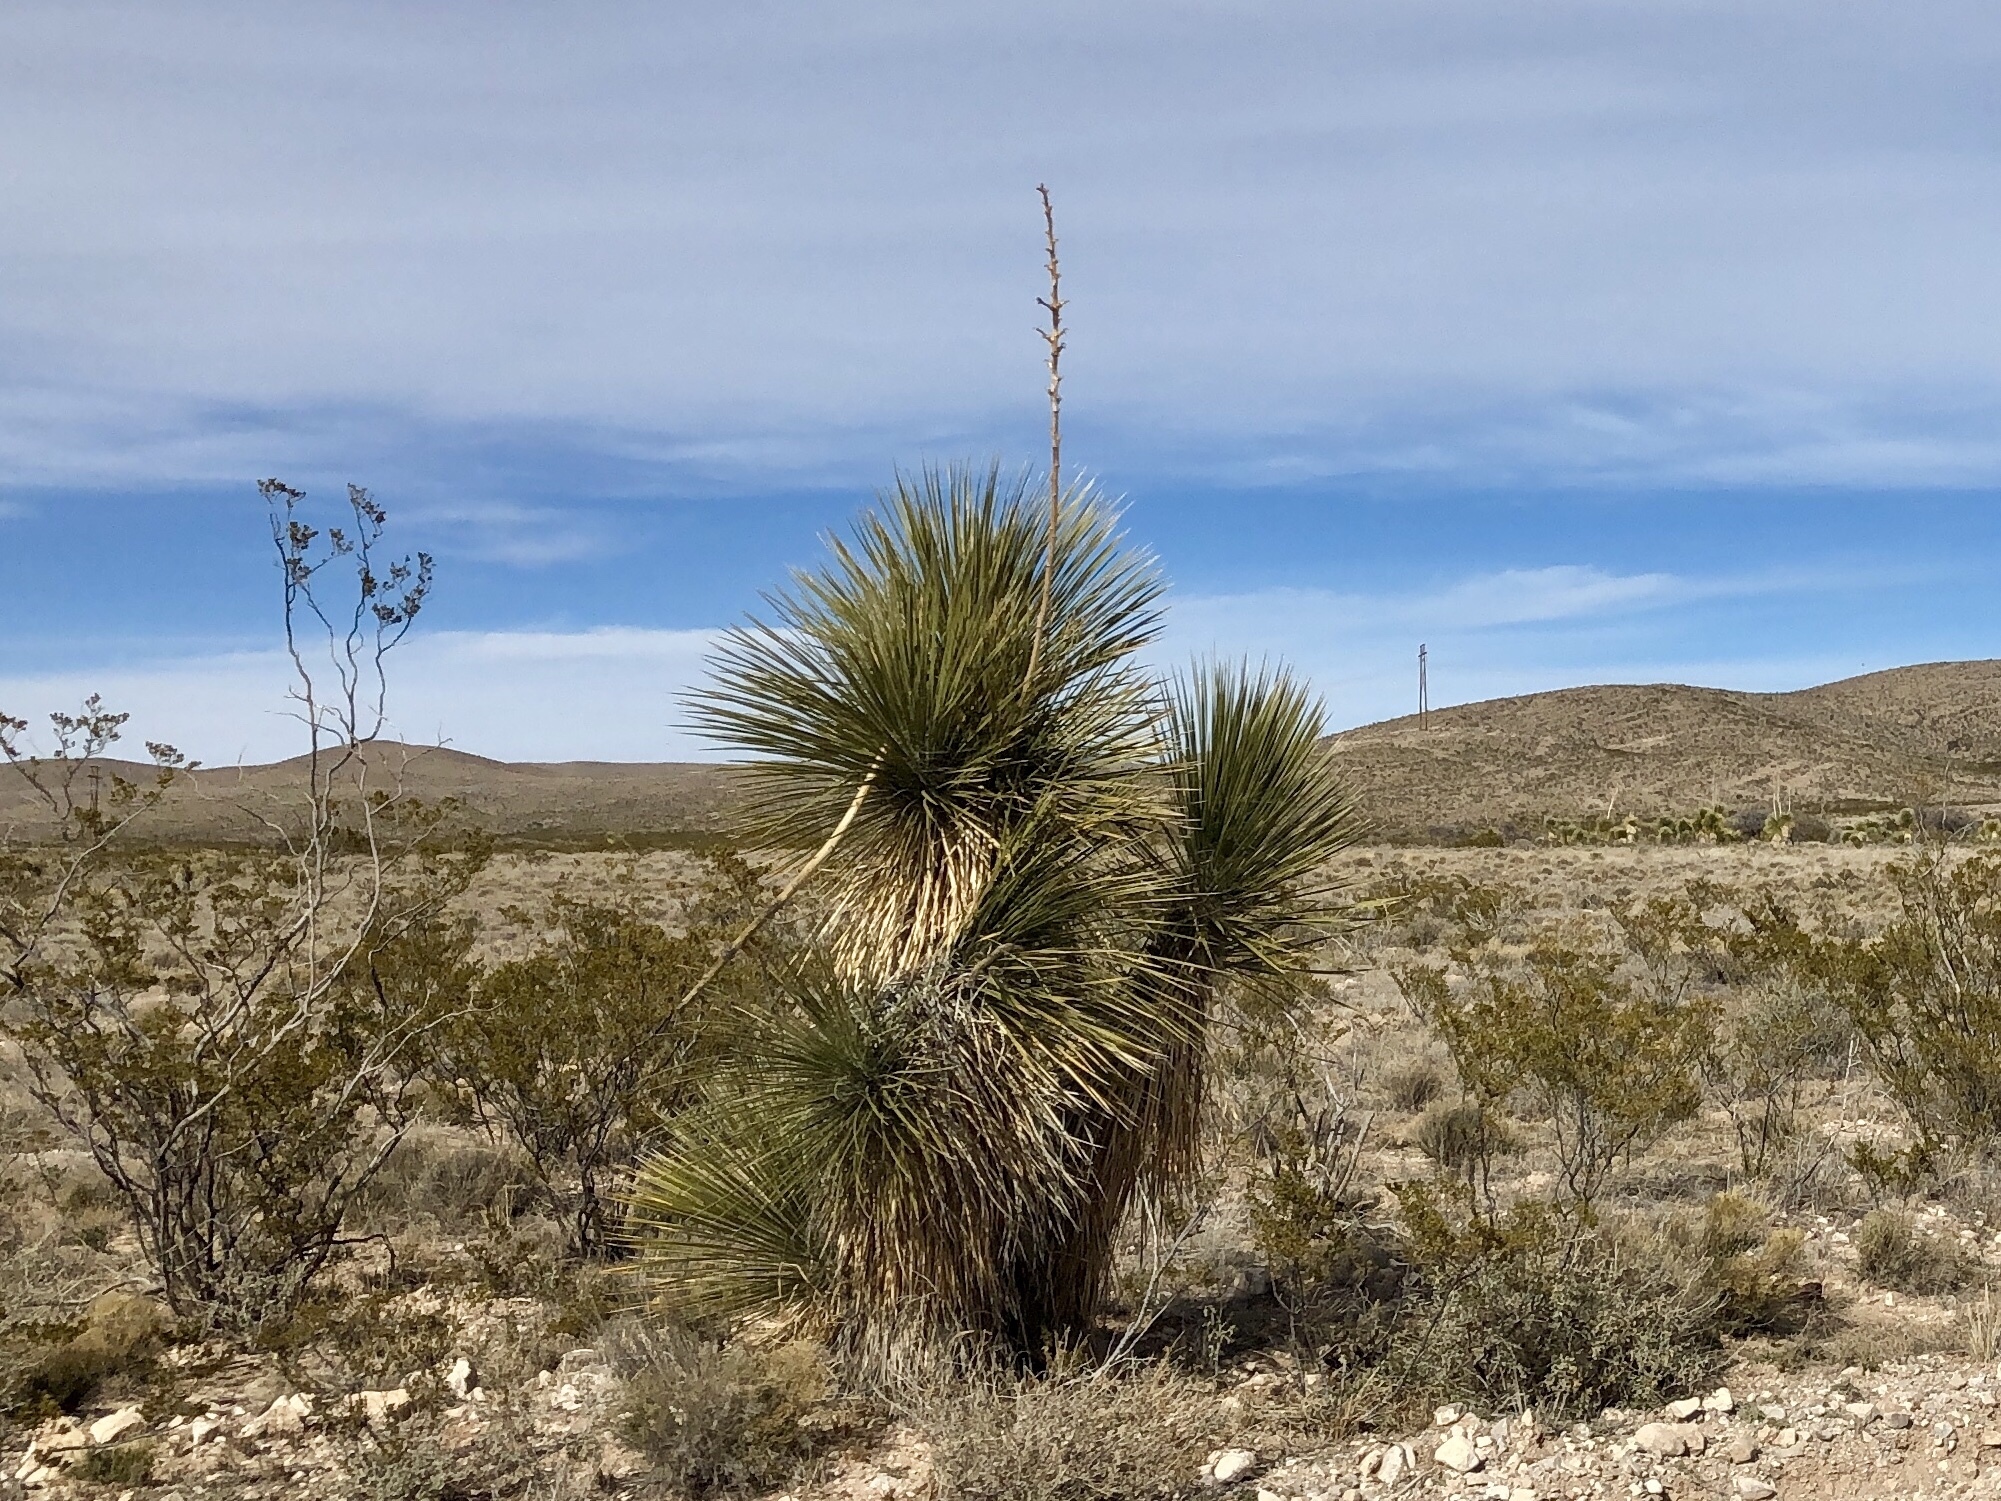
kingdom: Plantae
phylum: Tracheophyta
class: Liliopsida
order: Asparagales
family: Asparagaceae
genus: Yucca
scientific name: Yucca elata
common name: Palmella
